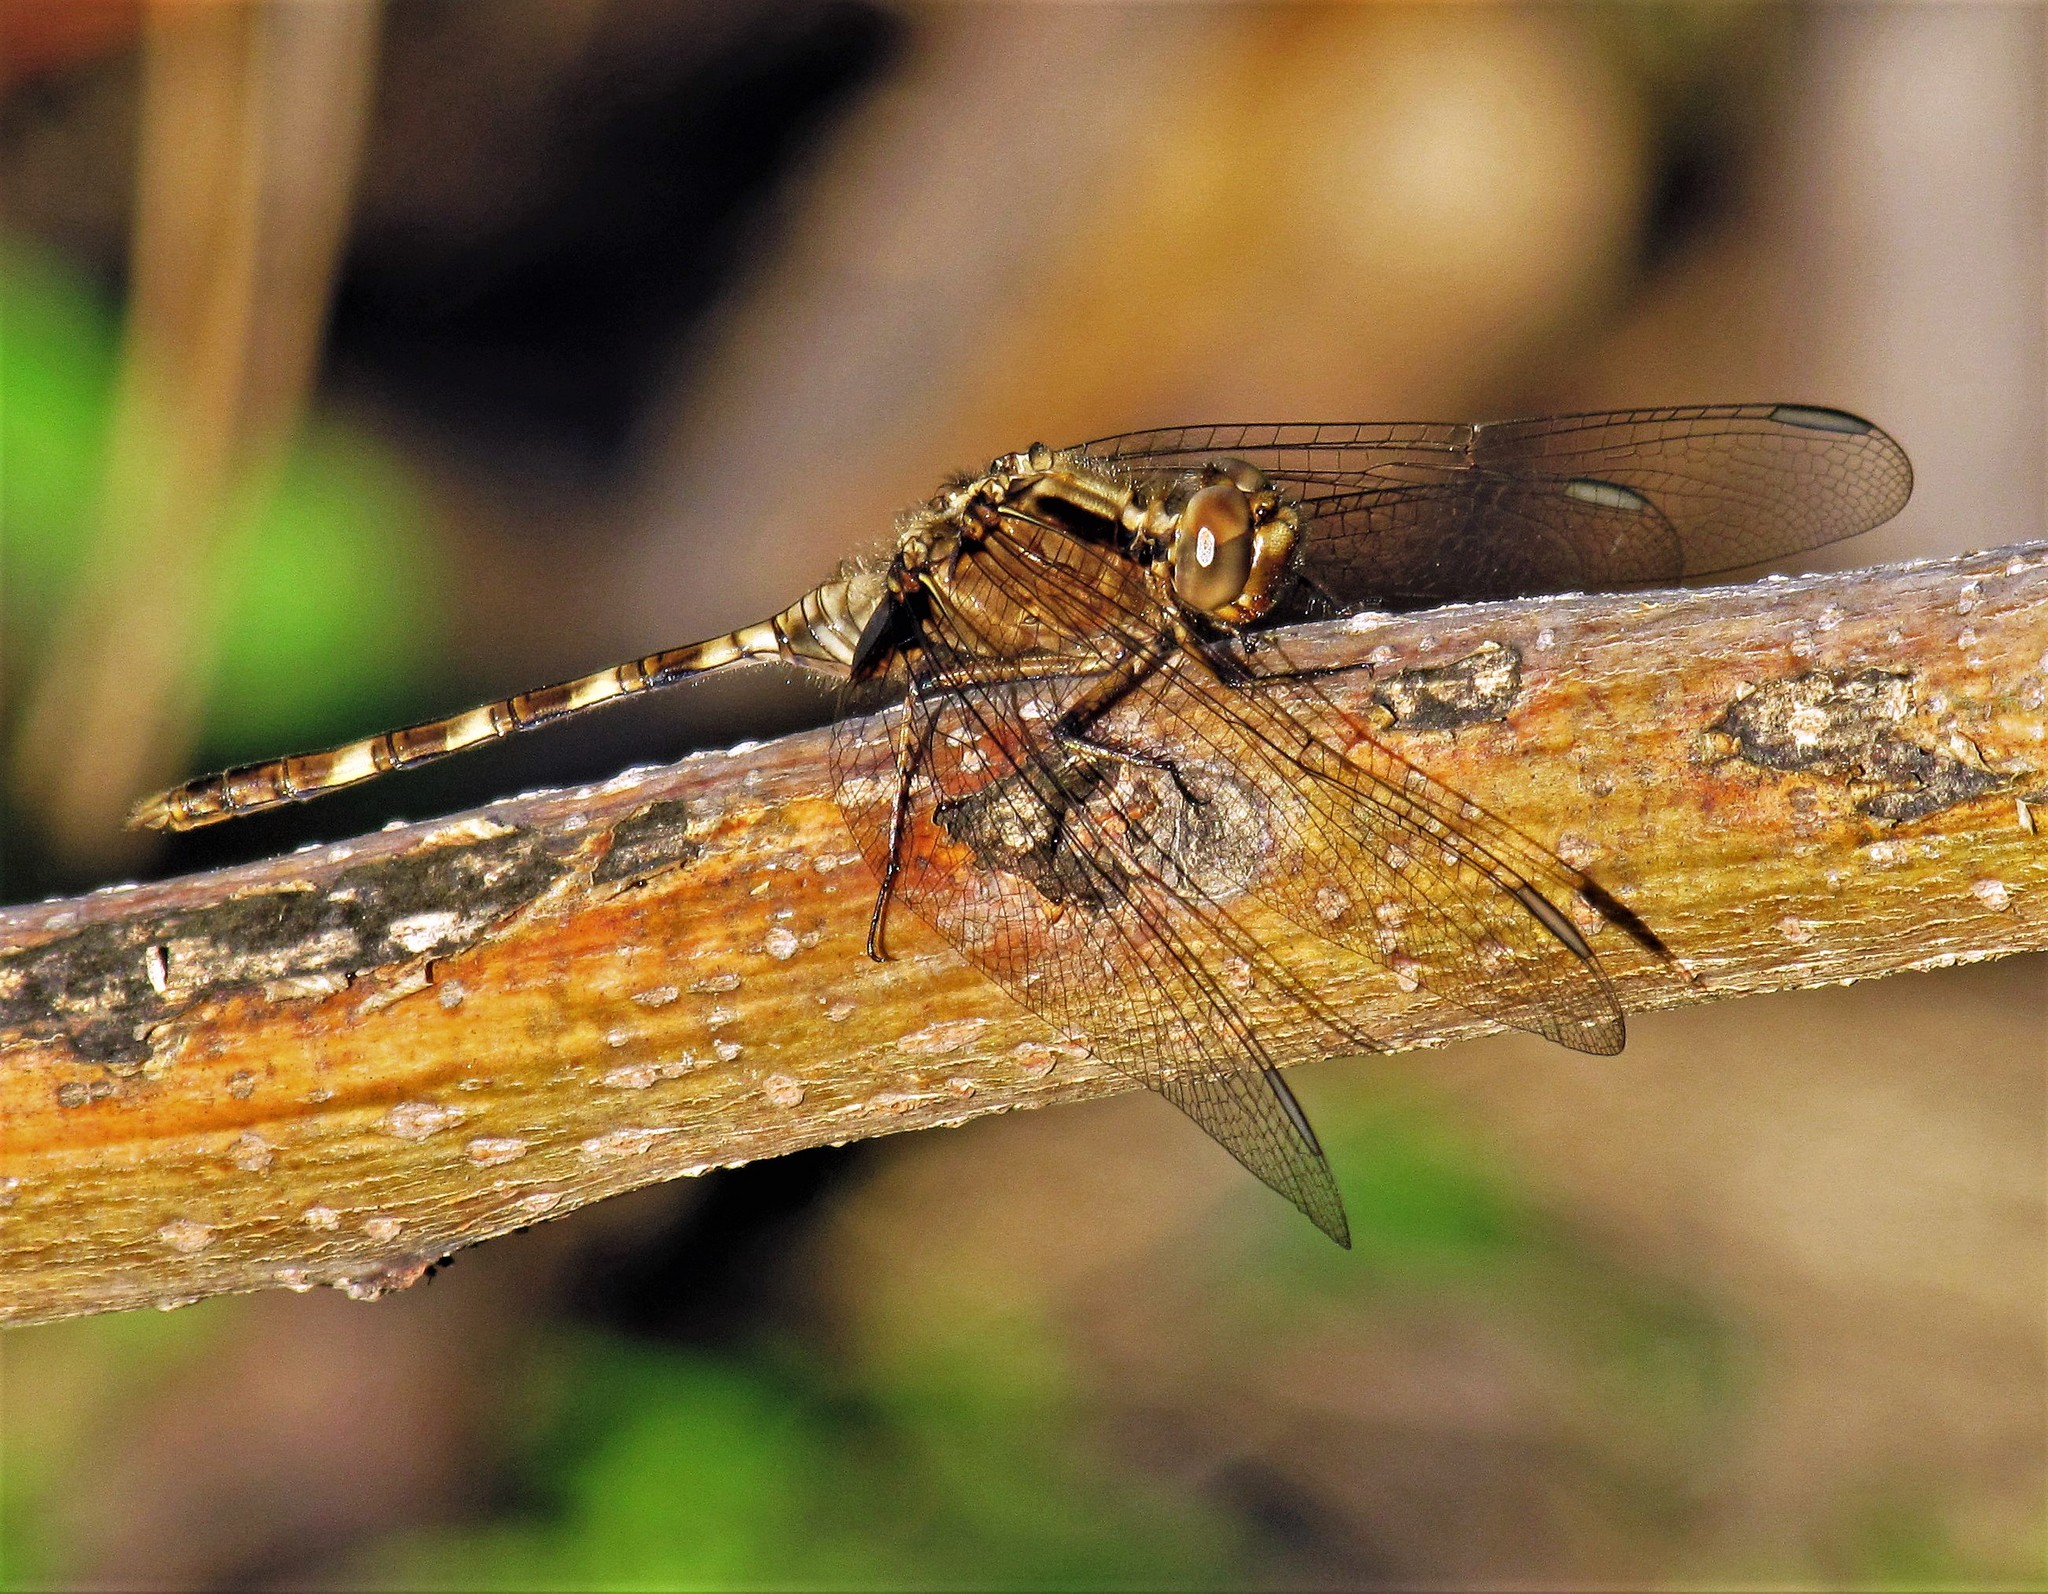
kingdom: Animalia
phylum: Arthropoda
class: Insecta
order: Odonata
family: Libellulidae
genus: Erythemis
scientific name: Erythemis plebeja
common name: Pin-tailed pondhawk
